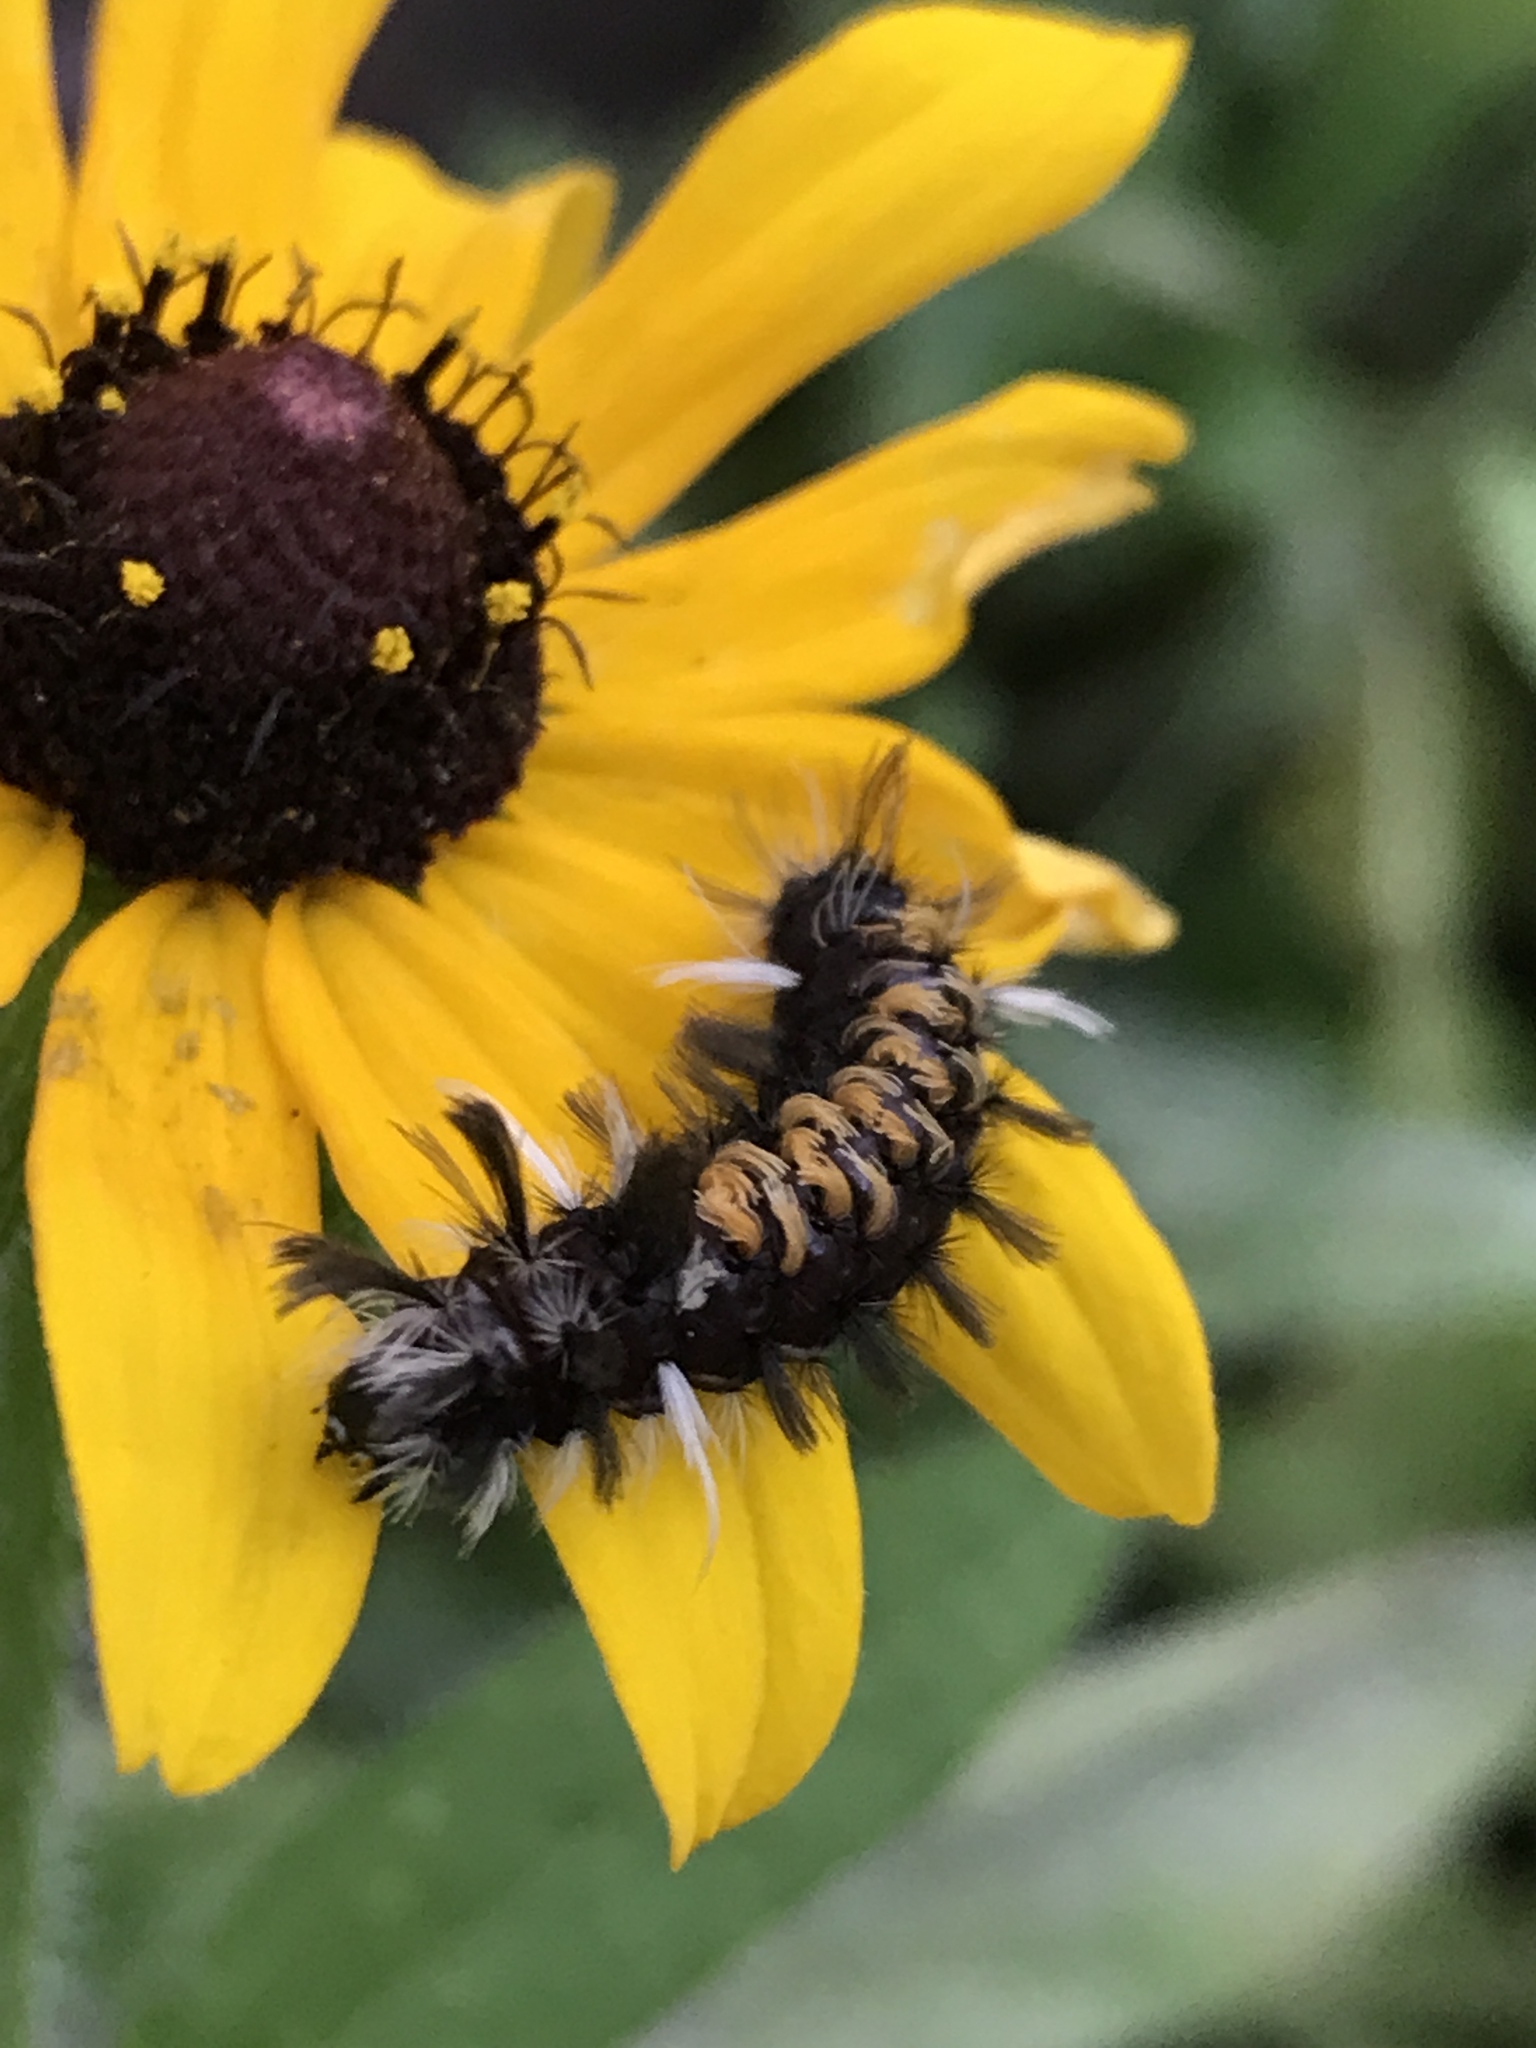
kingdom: Animalia
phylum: Arthropoda
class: Insecta
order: Lepidoptera
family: Erebidae
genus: Euchaetes
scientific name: Euchaetes egle
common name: Milkweed tussock moth
